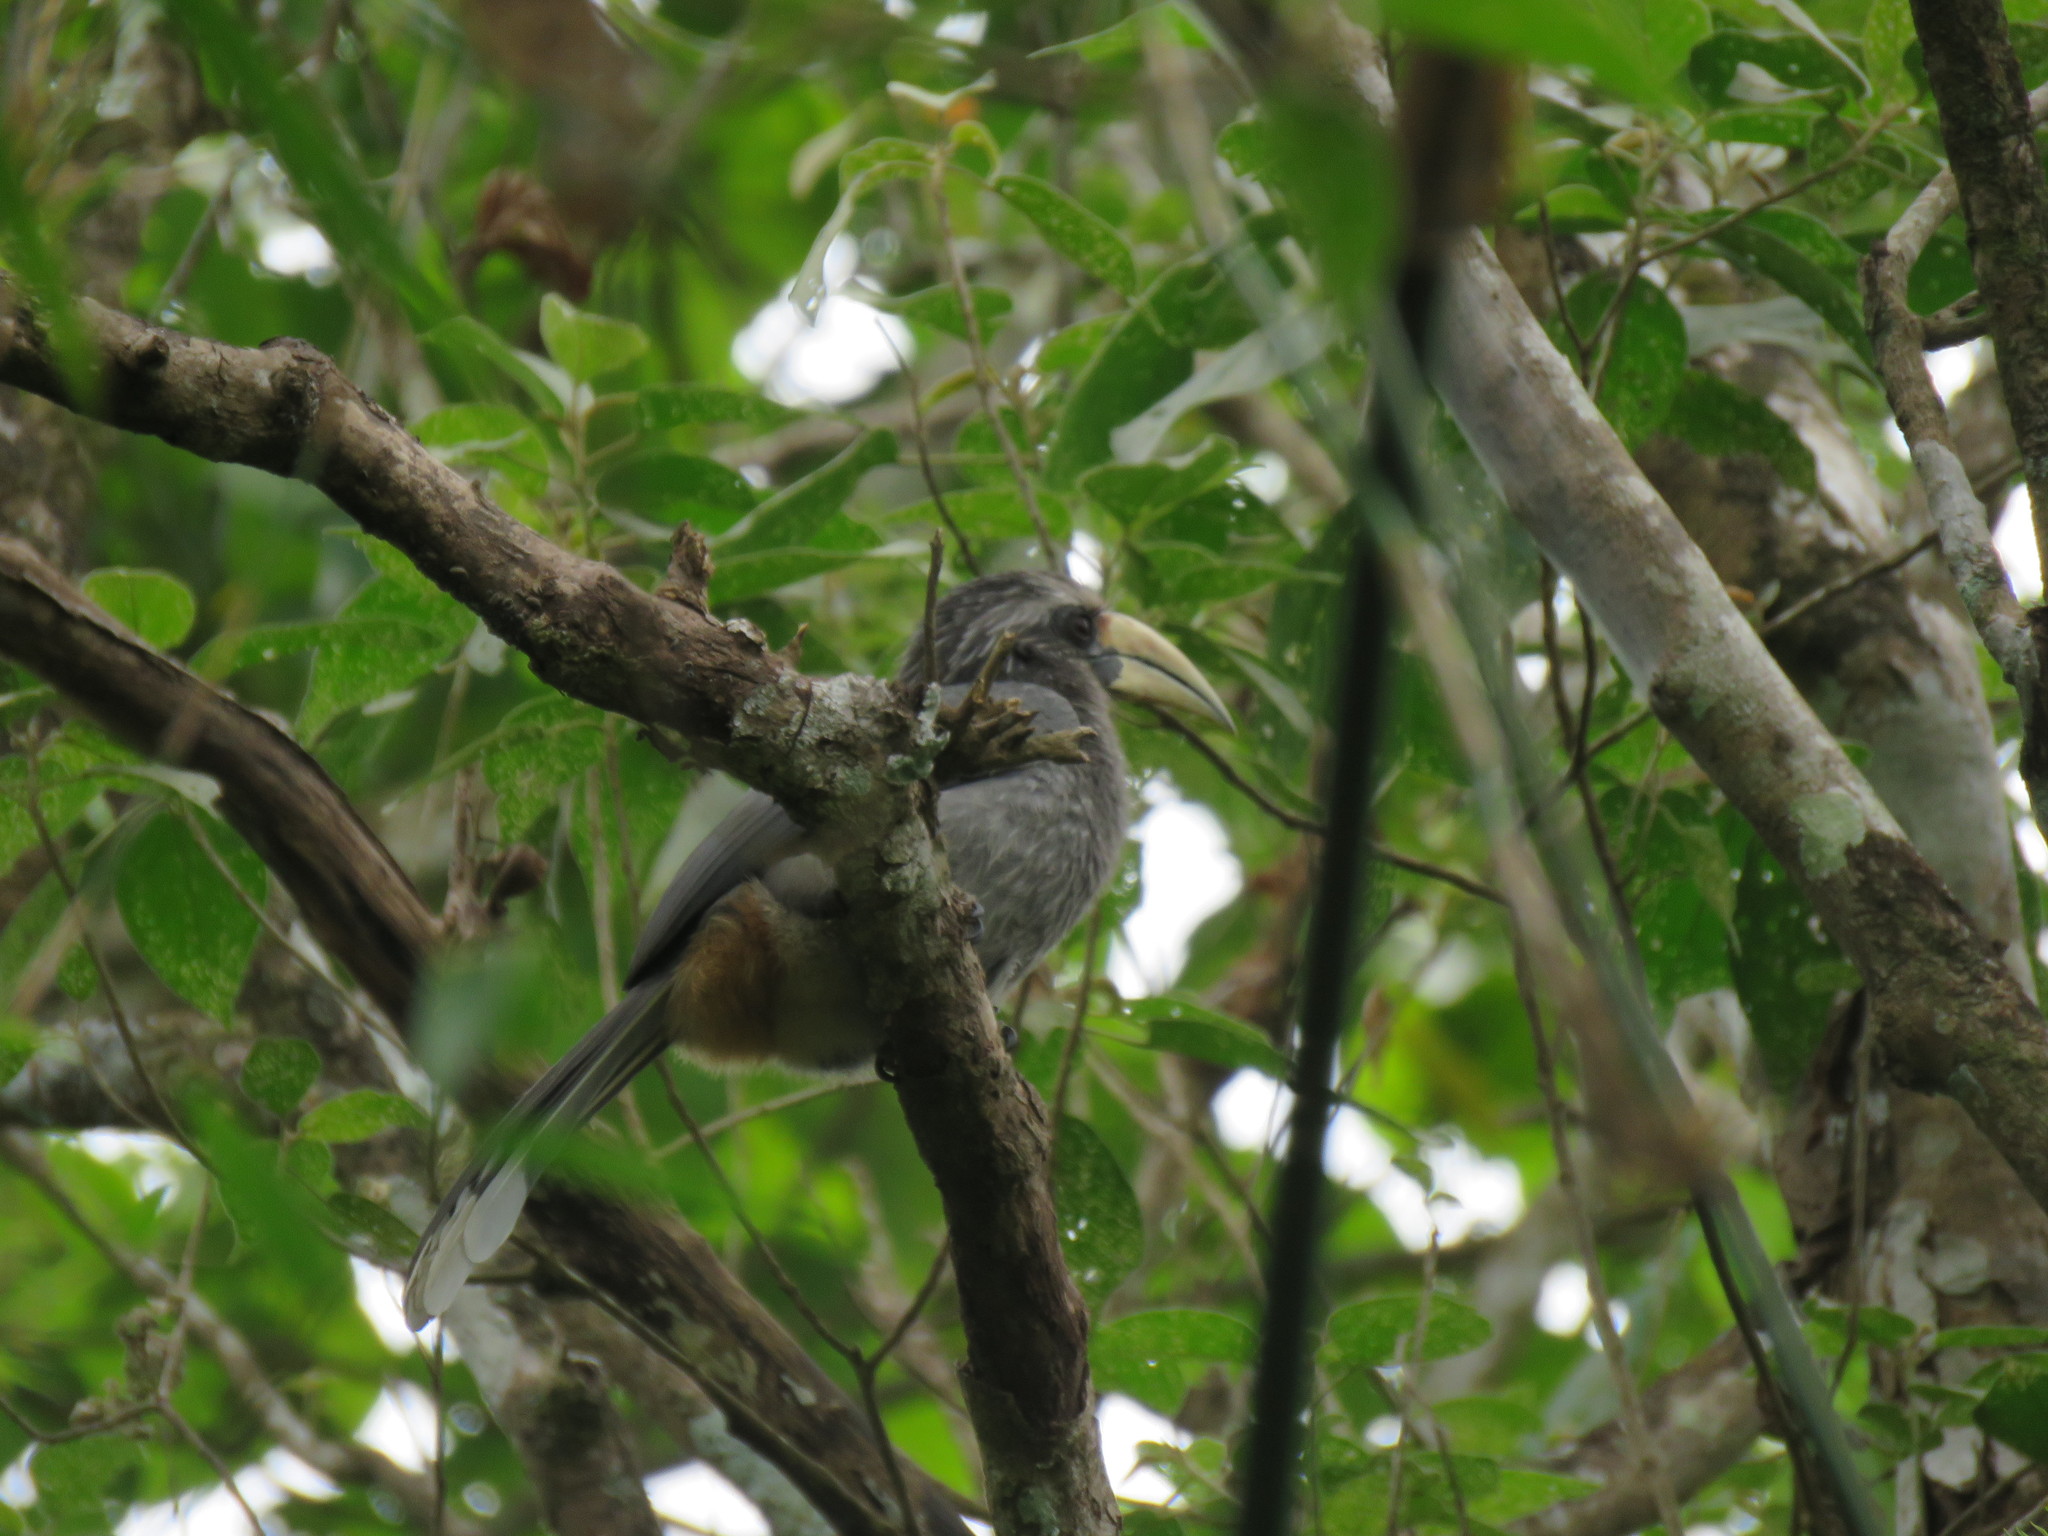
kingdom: Animalia
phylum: Chordata
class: Aves
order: Bucerotiformes
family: Bucerotidae
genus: Ocyceros
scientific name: Ocyceros griseus
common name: Malabar grey hornbill
